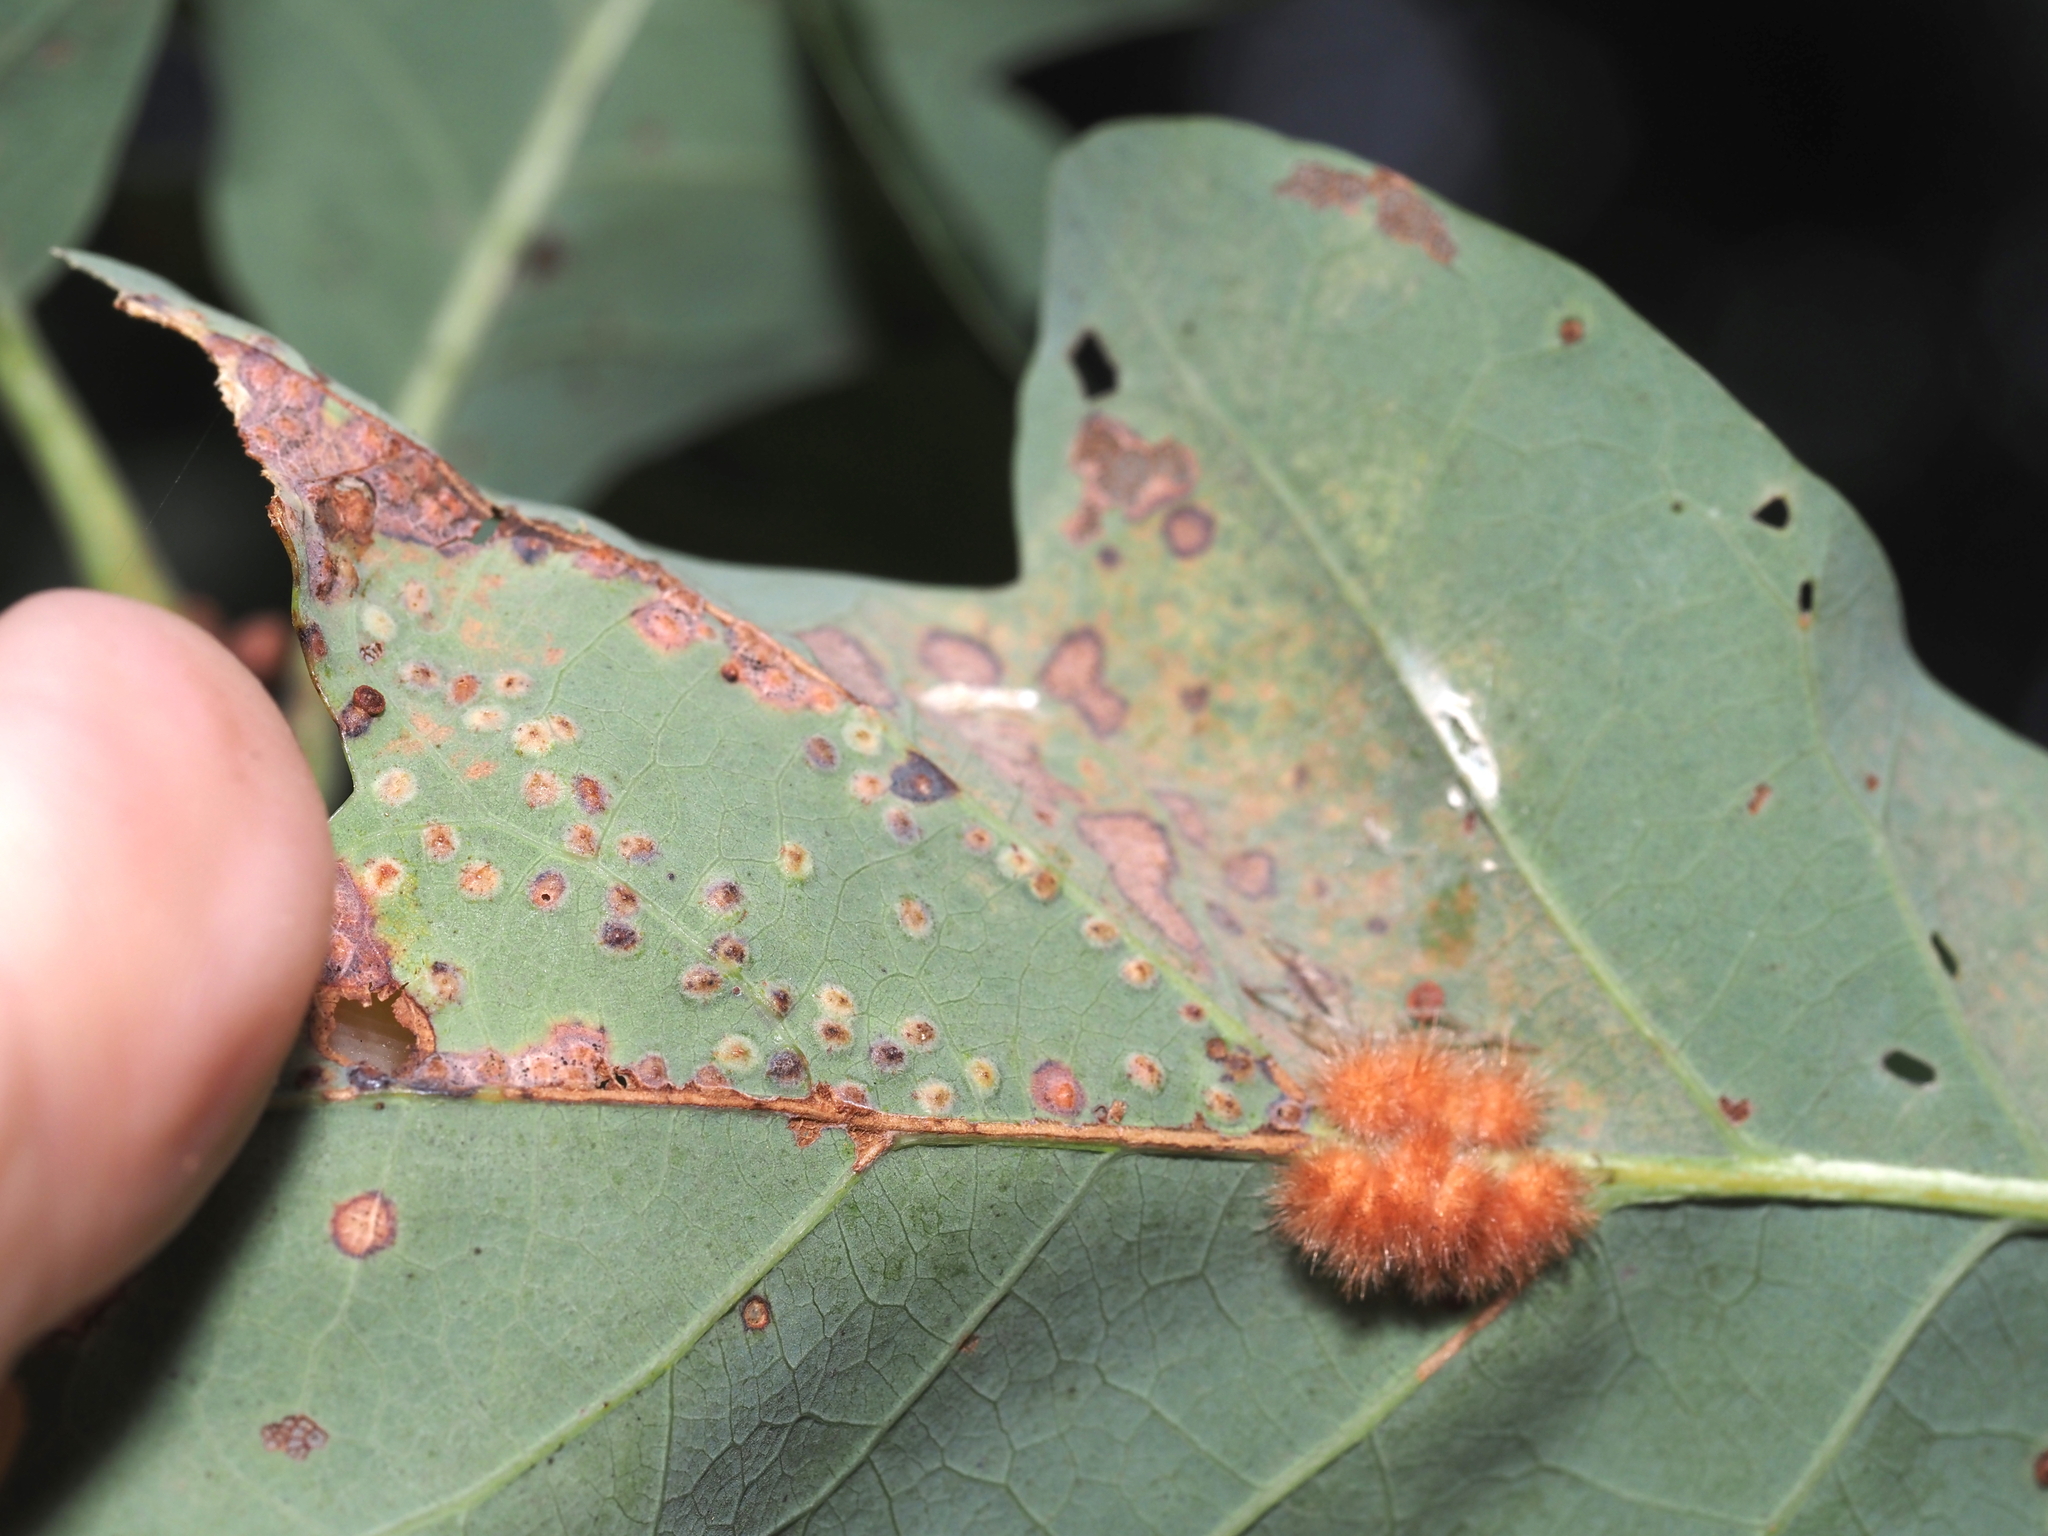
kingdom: Animalia
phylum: Arthropoda
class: Insecta
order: Hymenoptera
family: Cynipidae
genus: Neuroterus
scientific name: Neuroterus niger
